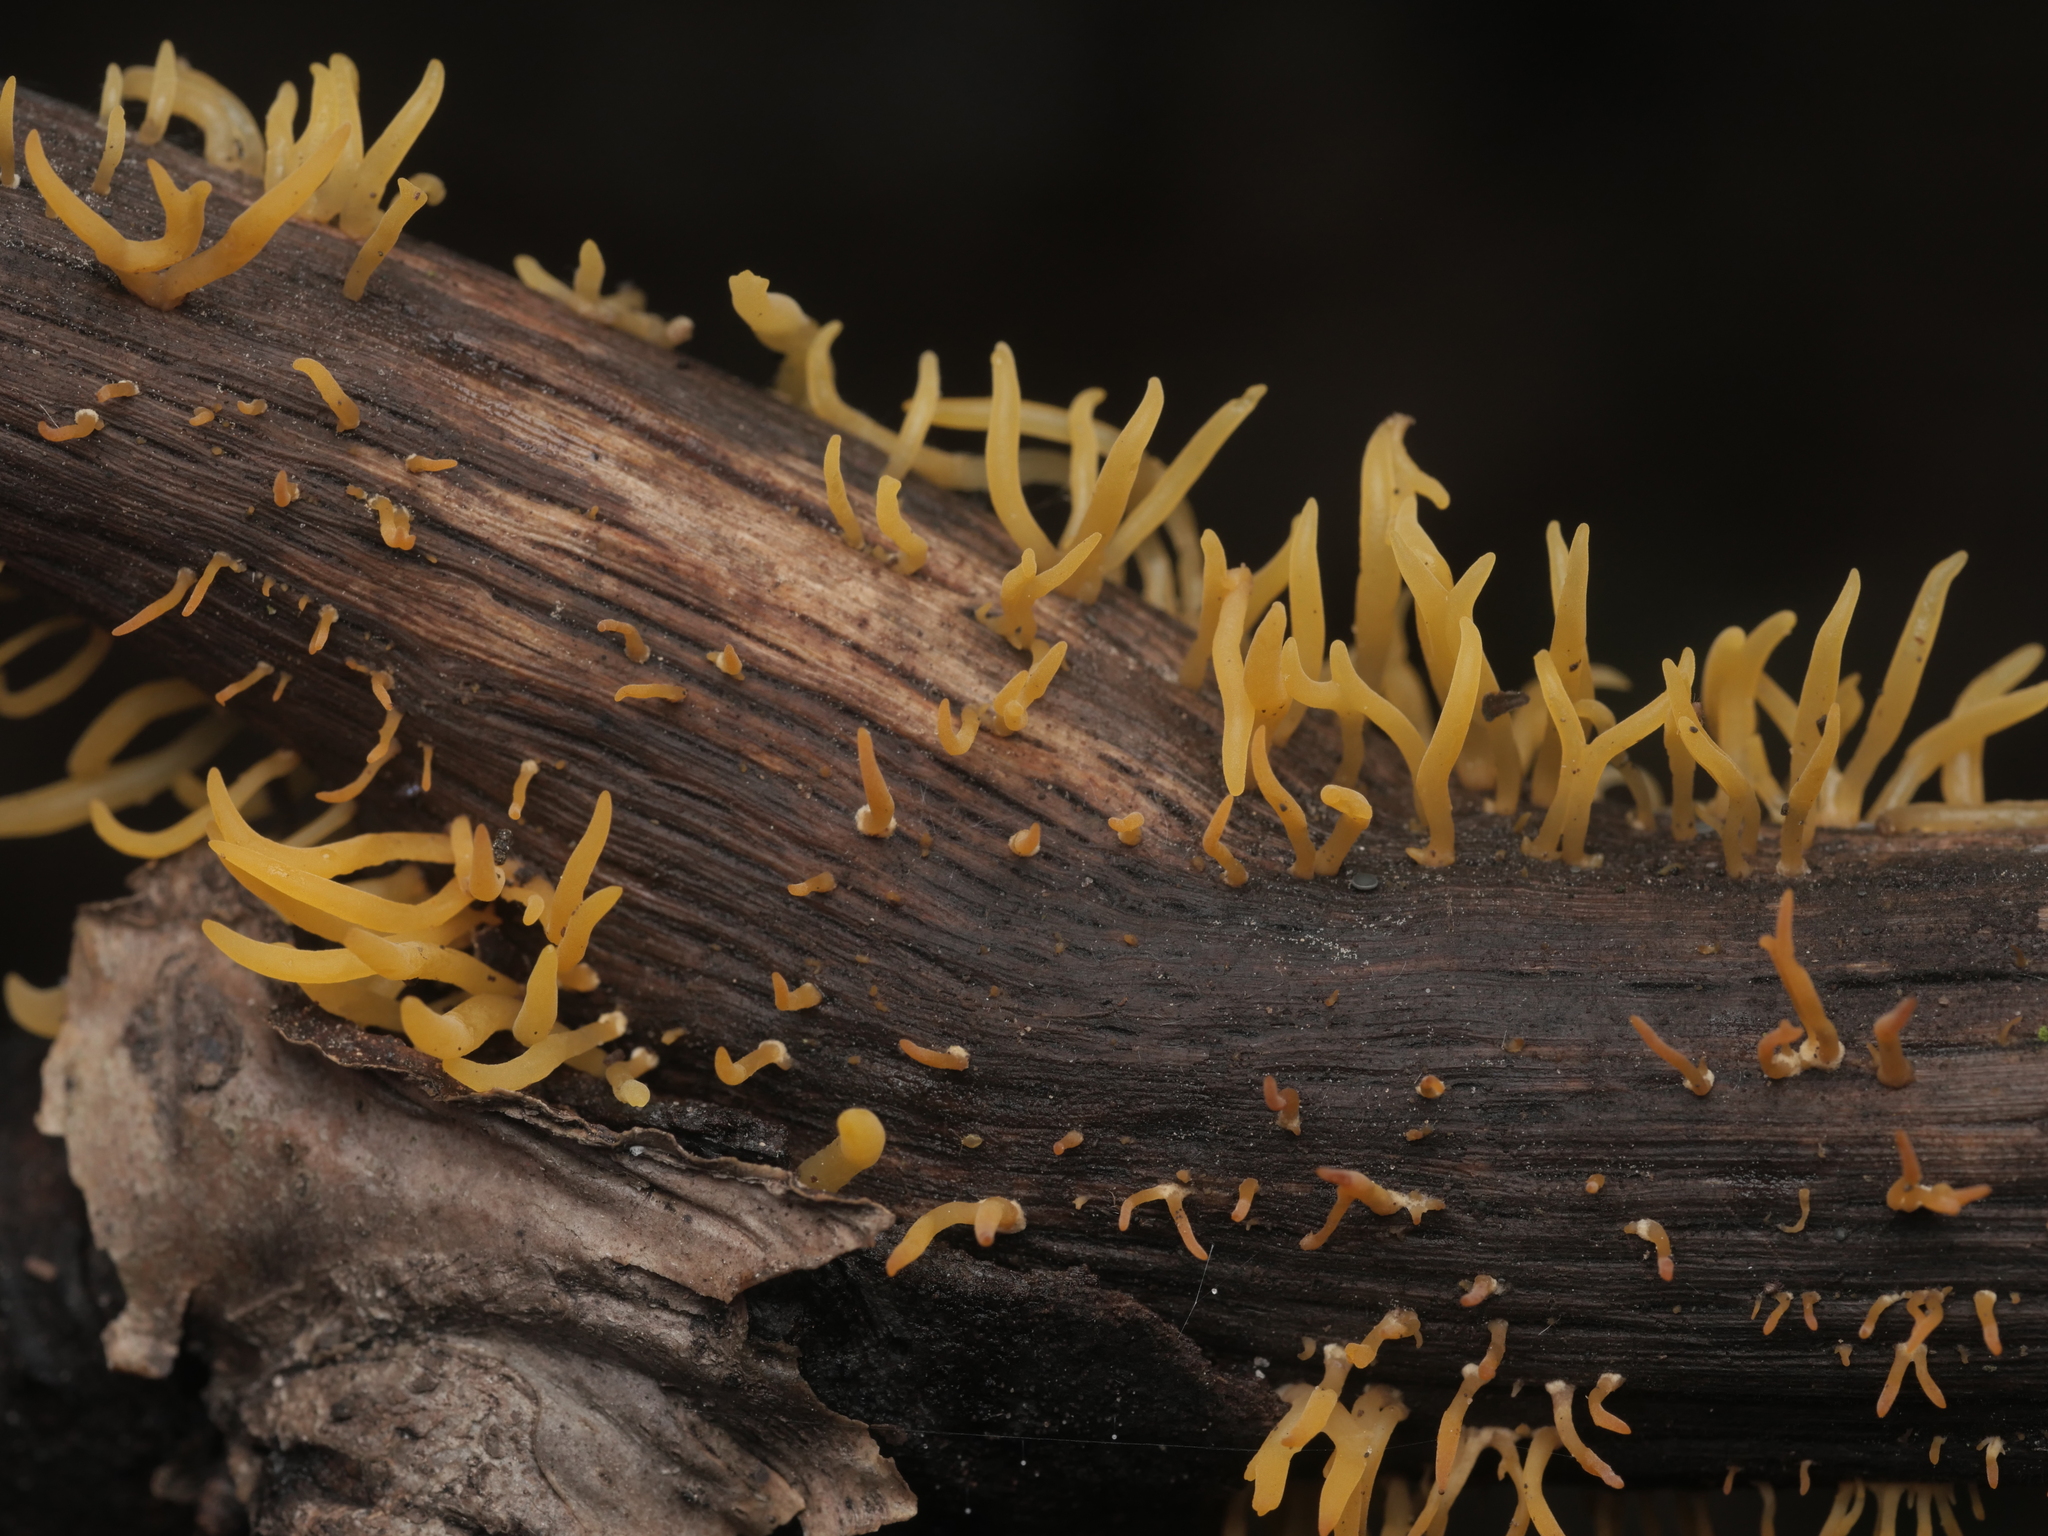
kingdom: Fungi
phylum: Basidiomycota
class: Dacrymycetes
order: Dacrymycetales
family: Dacrymycetaceae
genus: Calocera
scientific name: Calocera cornea
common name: Small stagshorn
